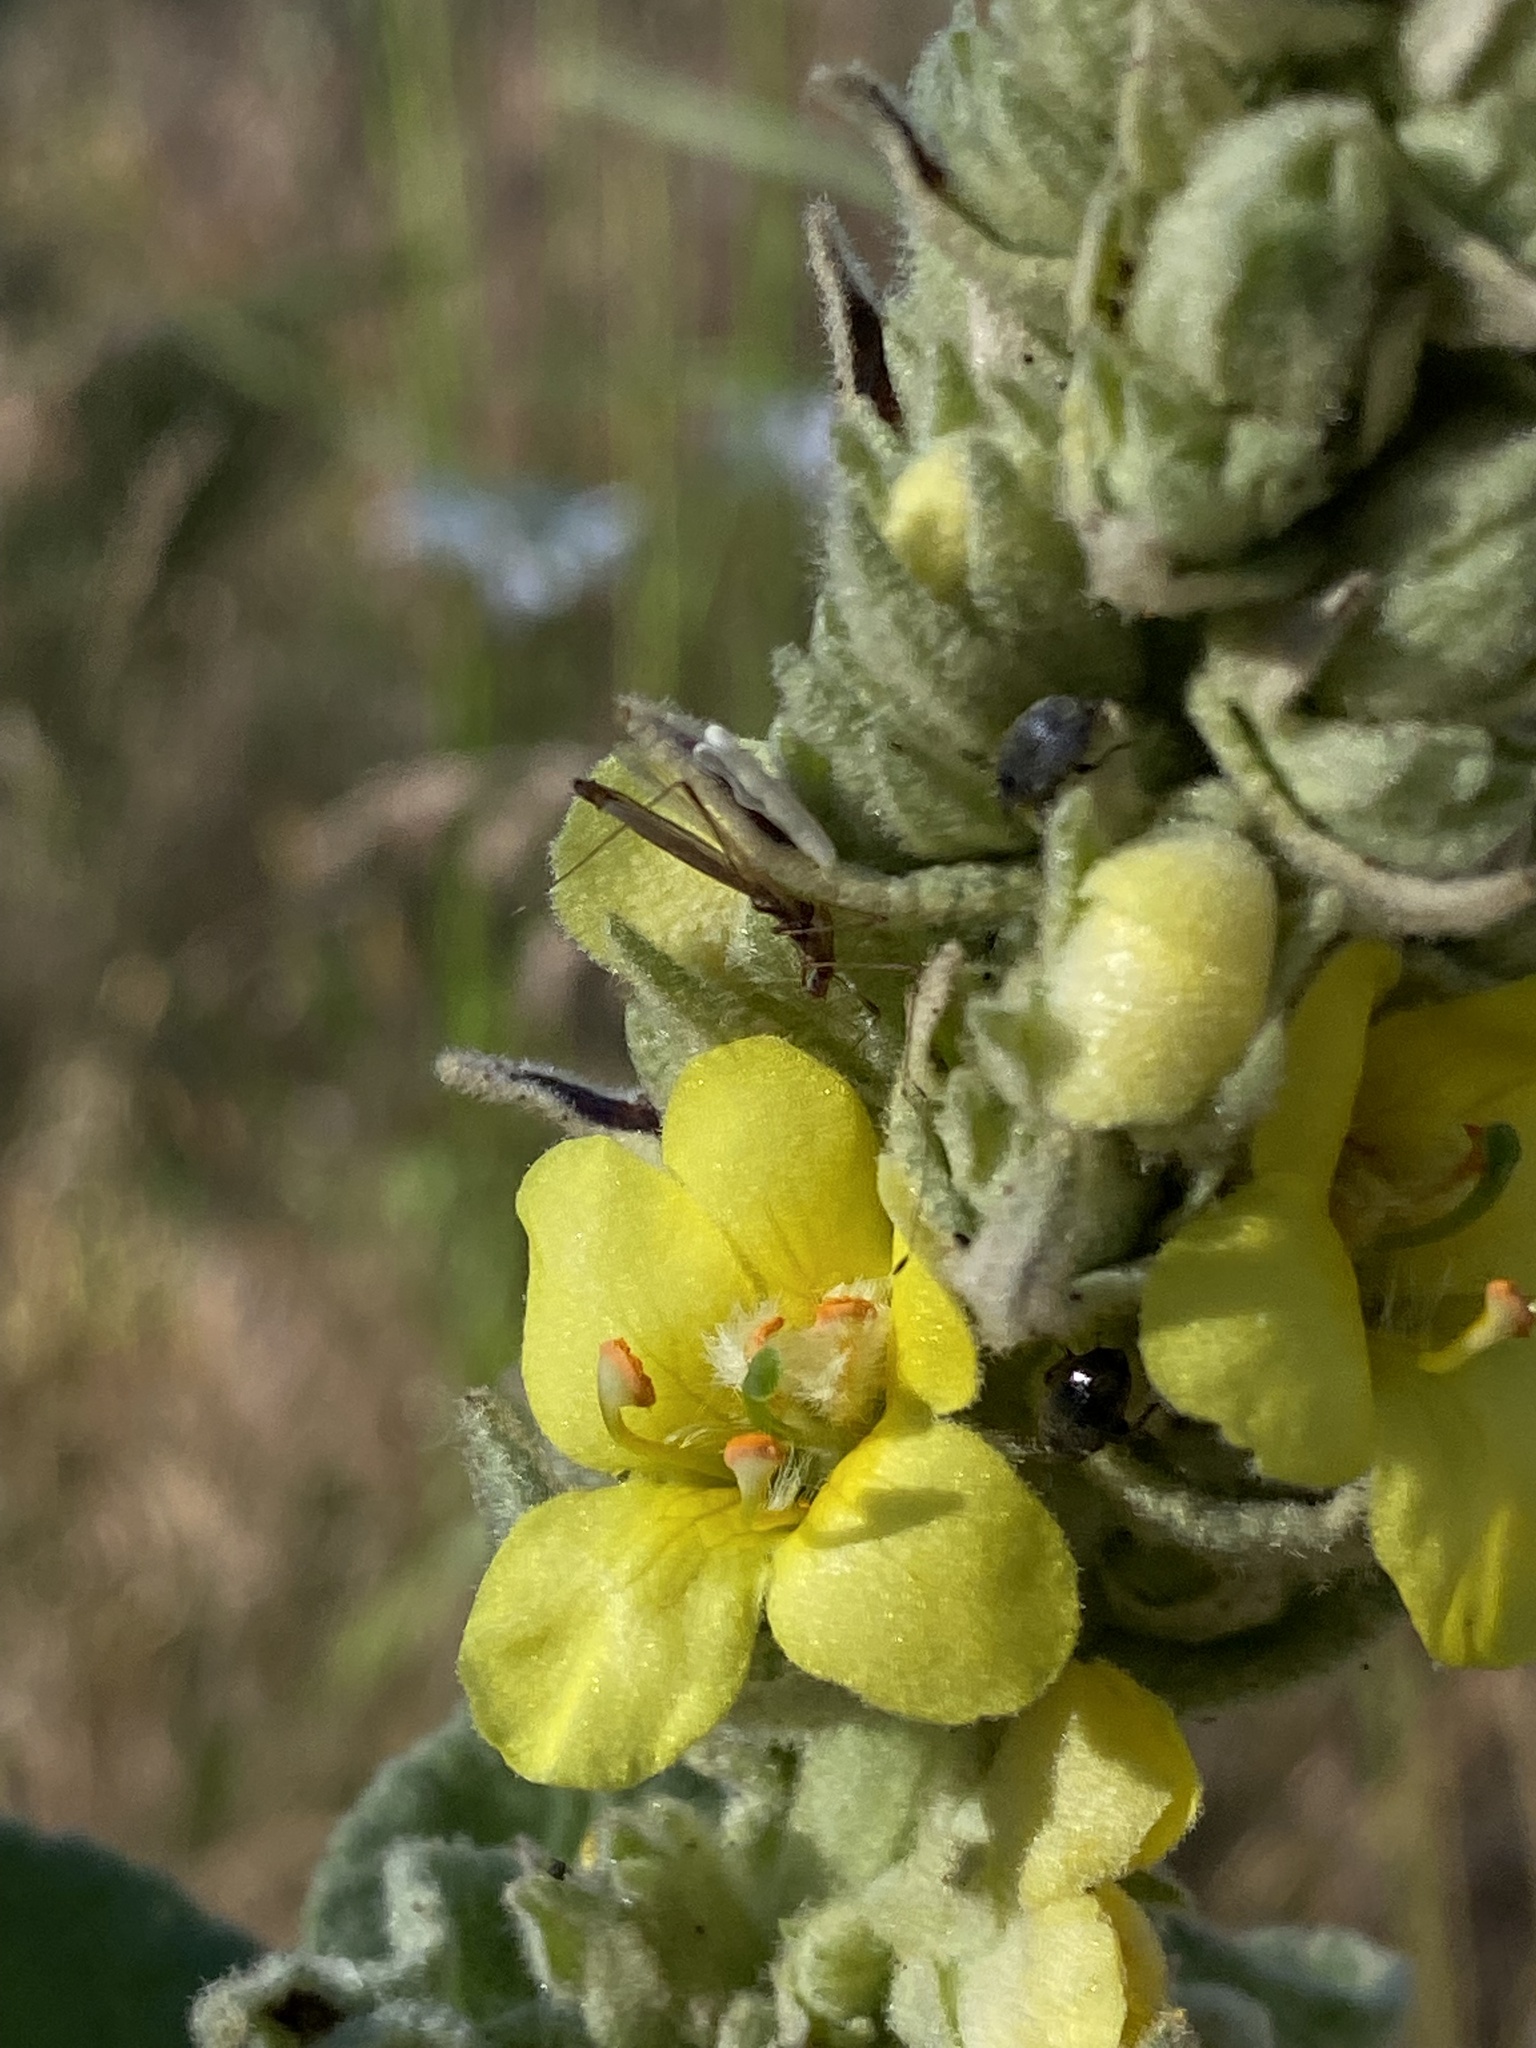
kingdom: Plantae
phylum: Tracheophyta
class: Magnoliopsida
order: Lamiales
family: Scrophulariaceae
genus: Verbascum
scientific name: Verbascum thapsus
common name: Common mullein
